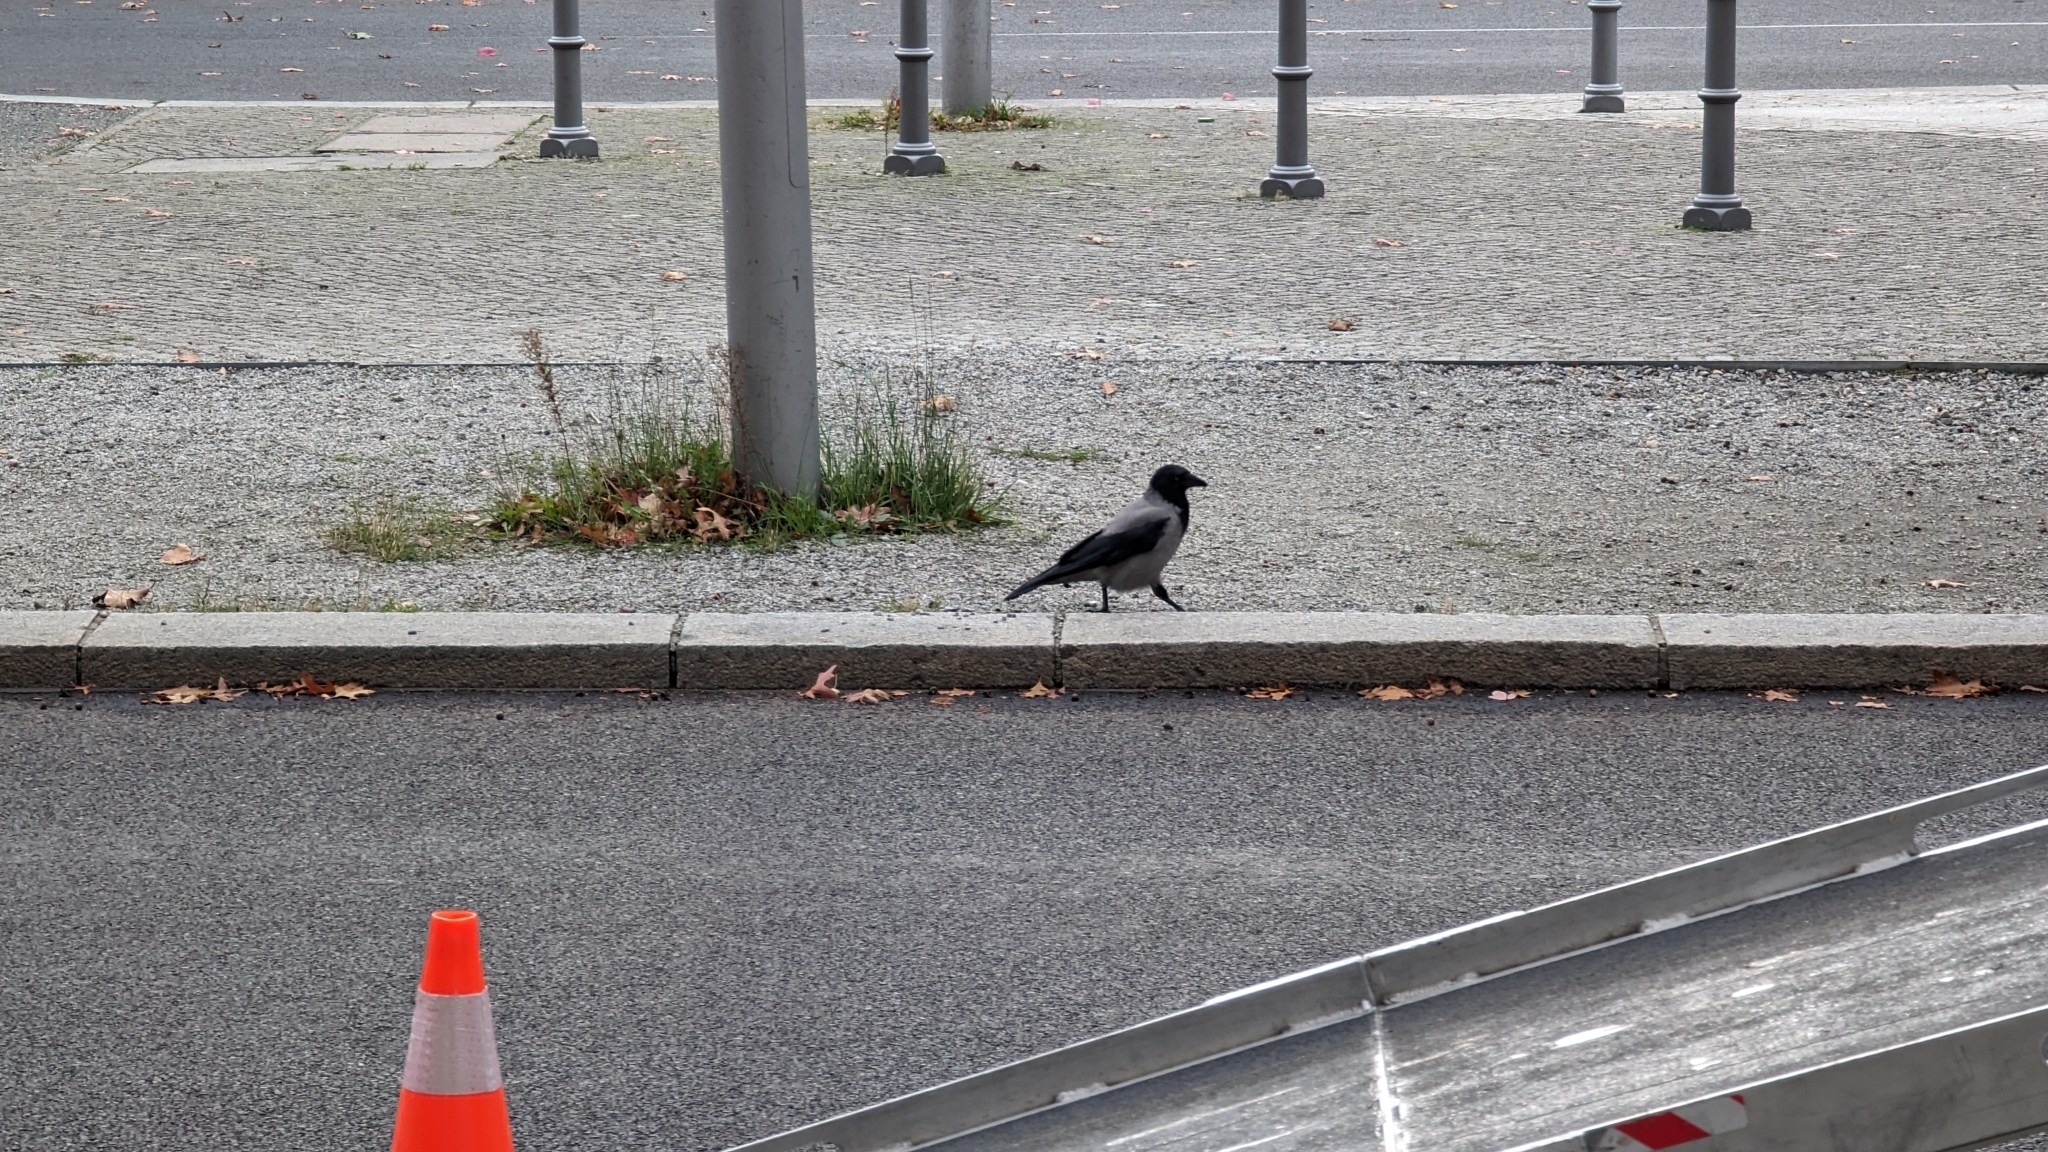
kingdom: Animalia
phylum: Chordata
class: Aves
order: Passeriformes
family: Corvidae
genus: Corvus
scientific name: Corvus cornix
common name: Hooded crow
